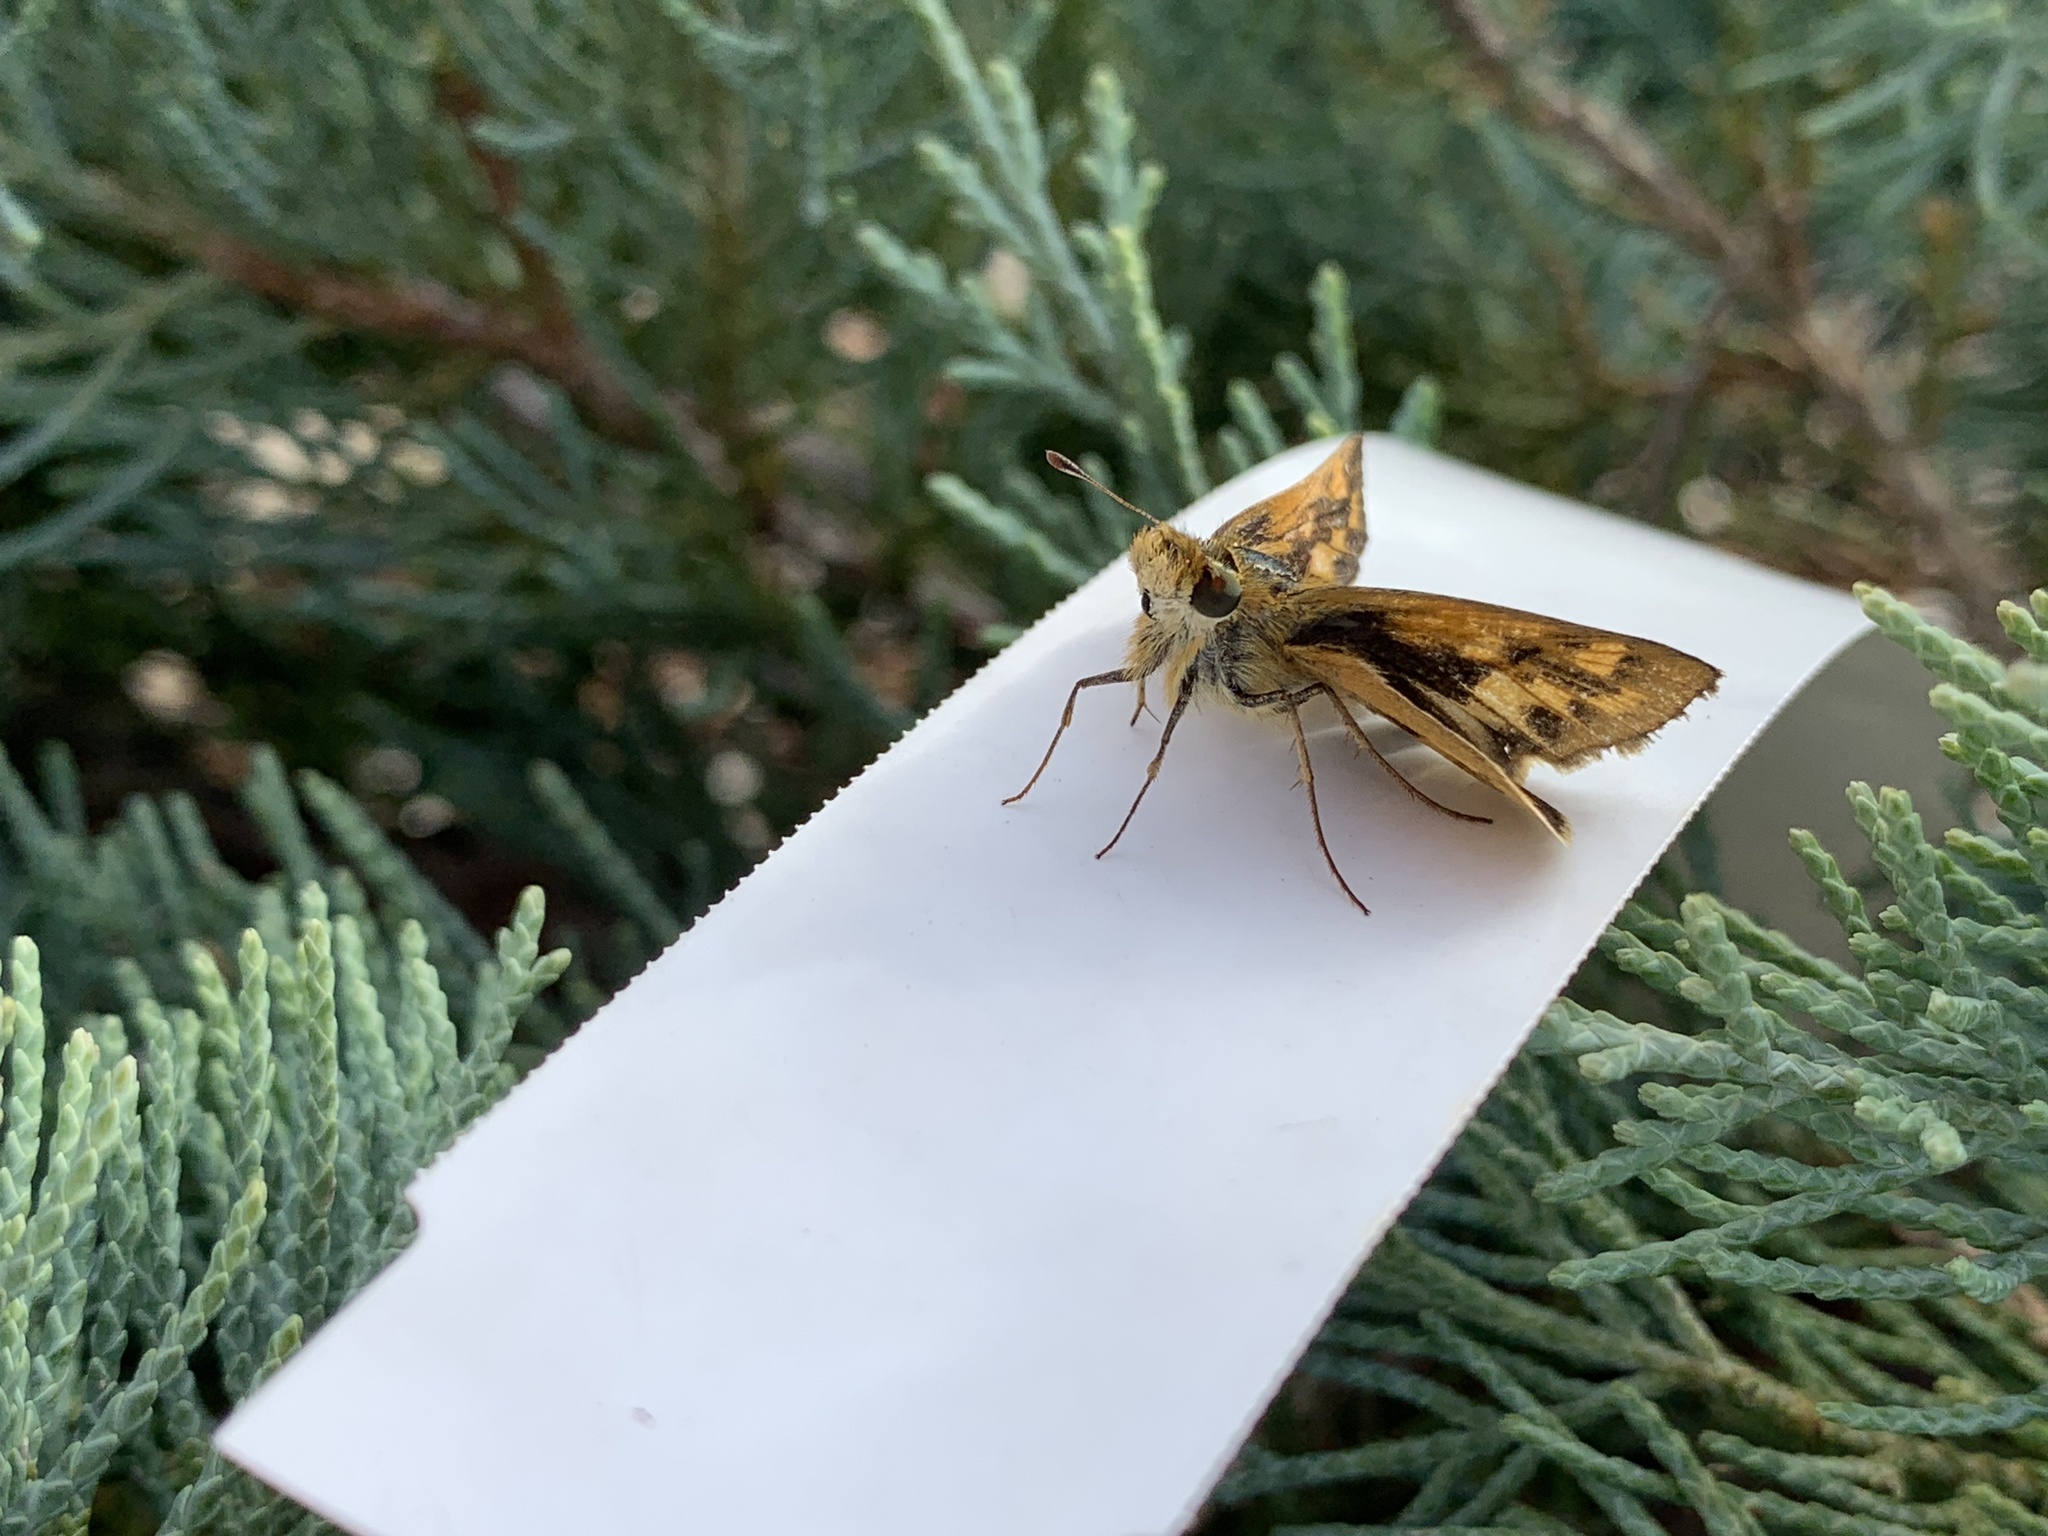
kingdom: Animalia
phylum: Arthropoda
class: Insecta
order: Lepidoptera
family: Hesperiidae
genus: Hylephila
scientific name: Hylephila phyleus
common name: Fiery skipper
